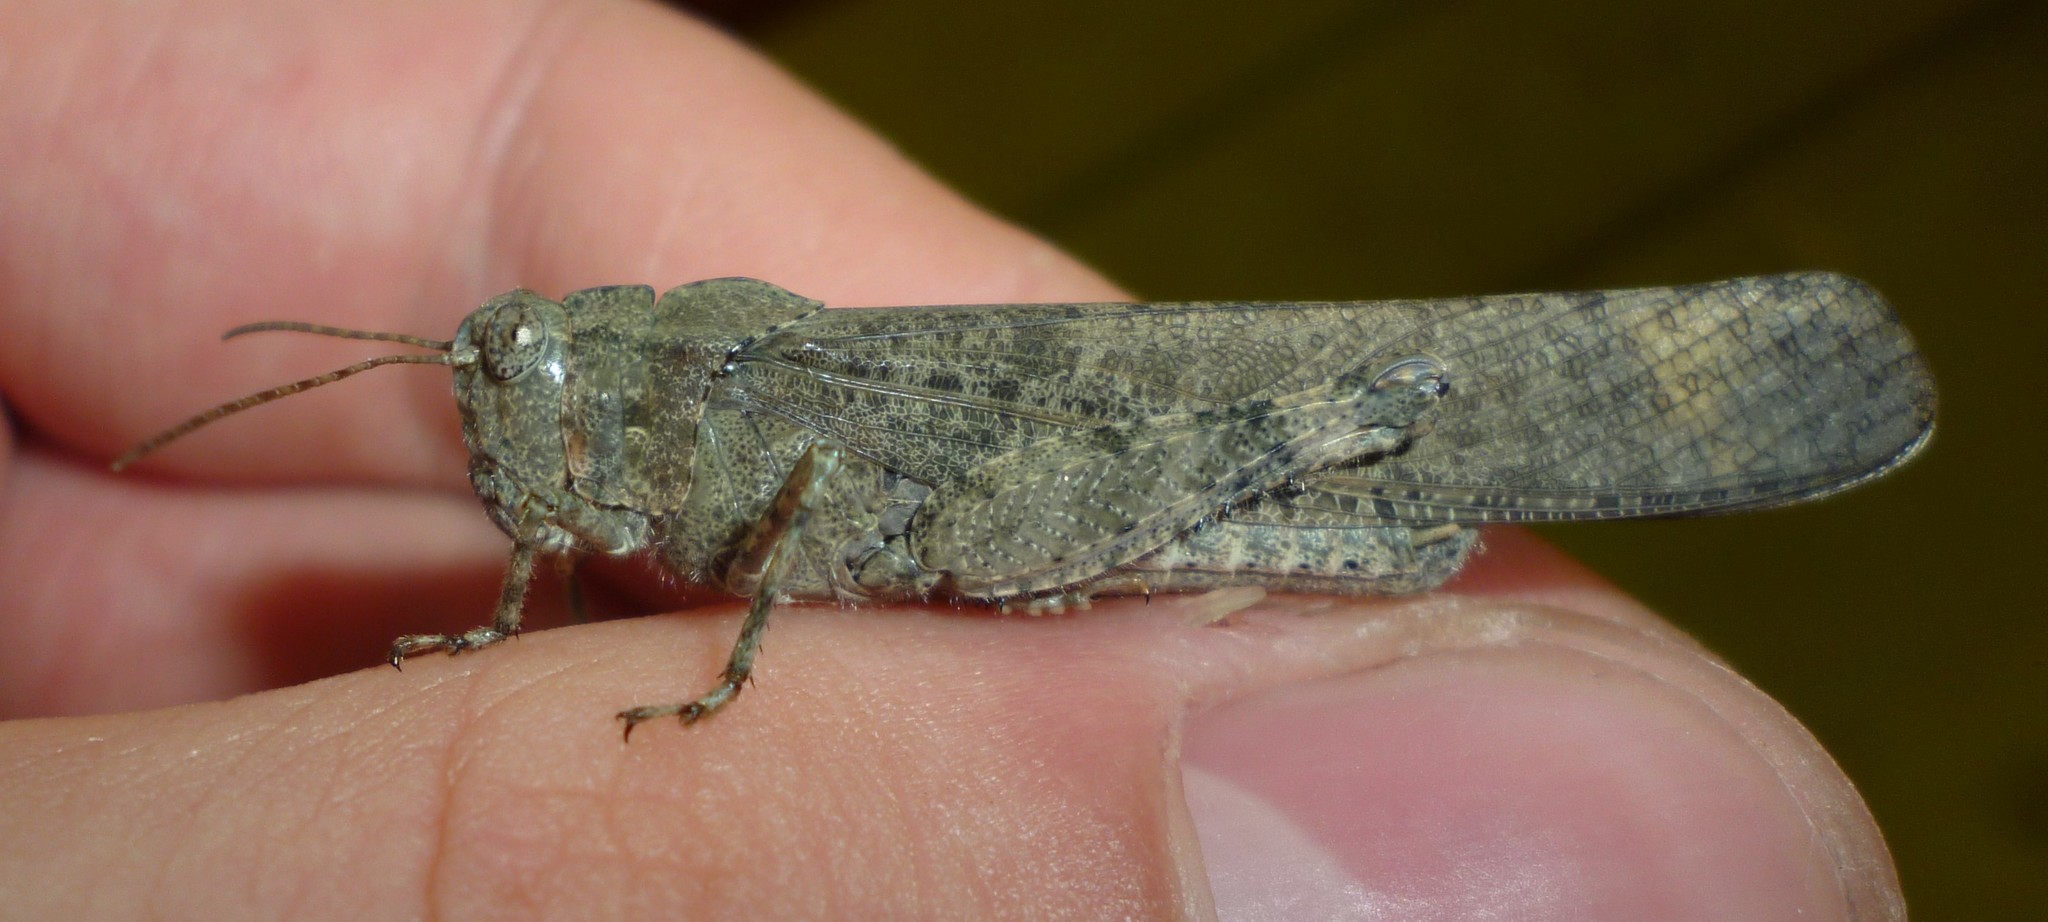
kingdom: Animalia
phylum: Arthropoda
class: Insecta
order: Orthoptera
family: Acrididae
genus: Dissosteira
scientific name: Dissosteira carolina
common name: Carolina grasshopper
